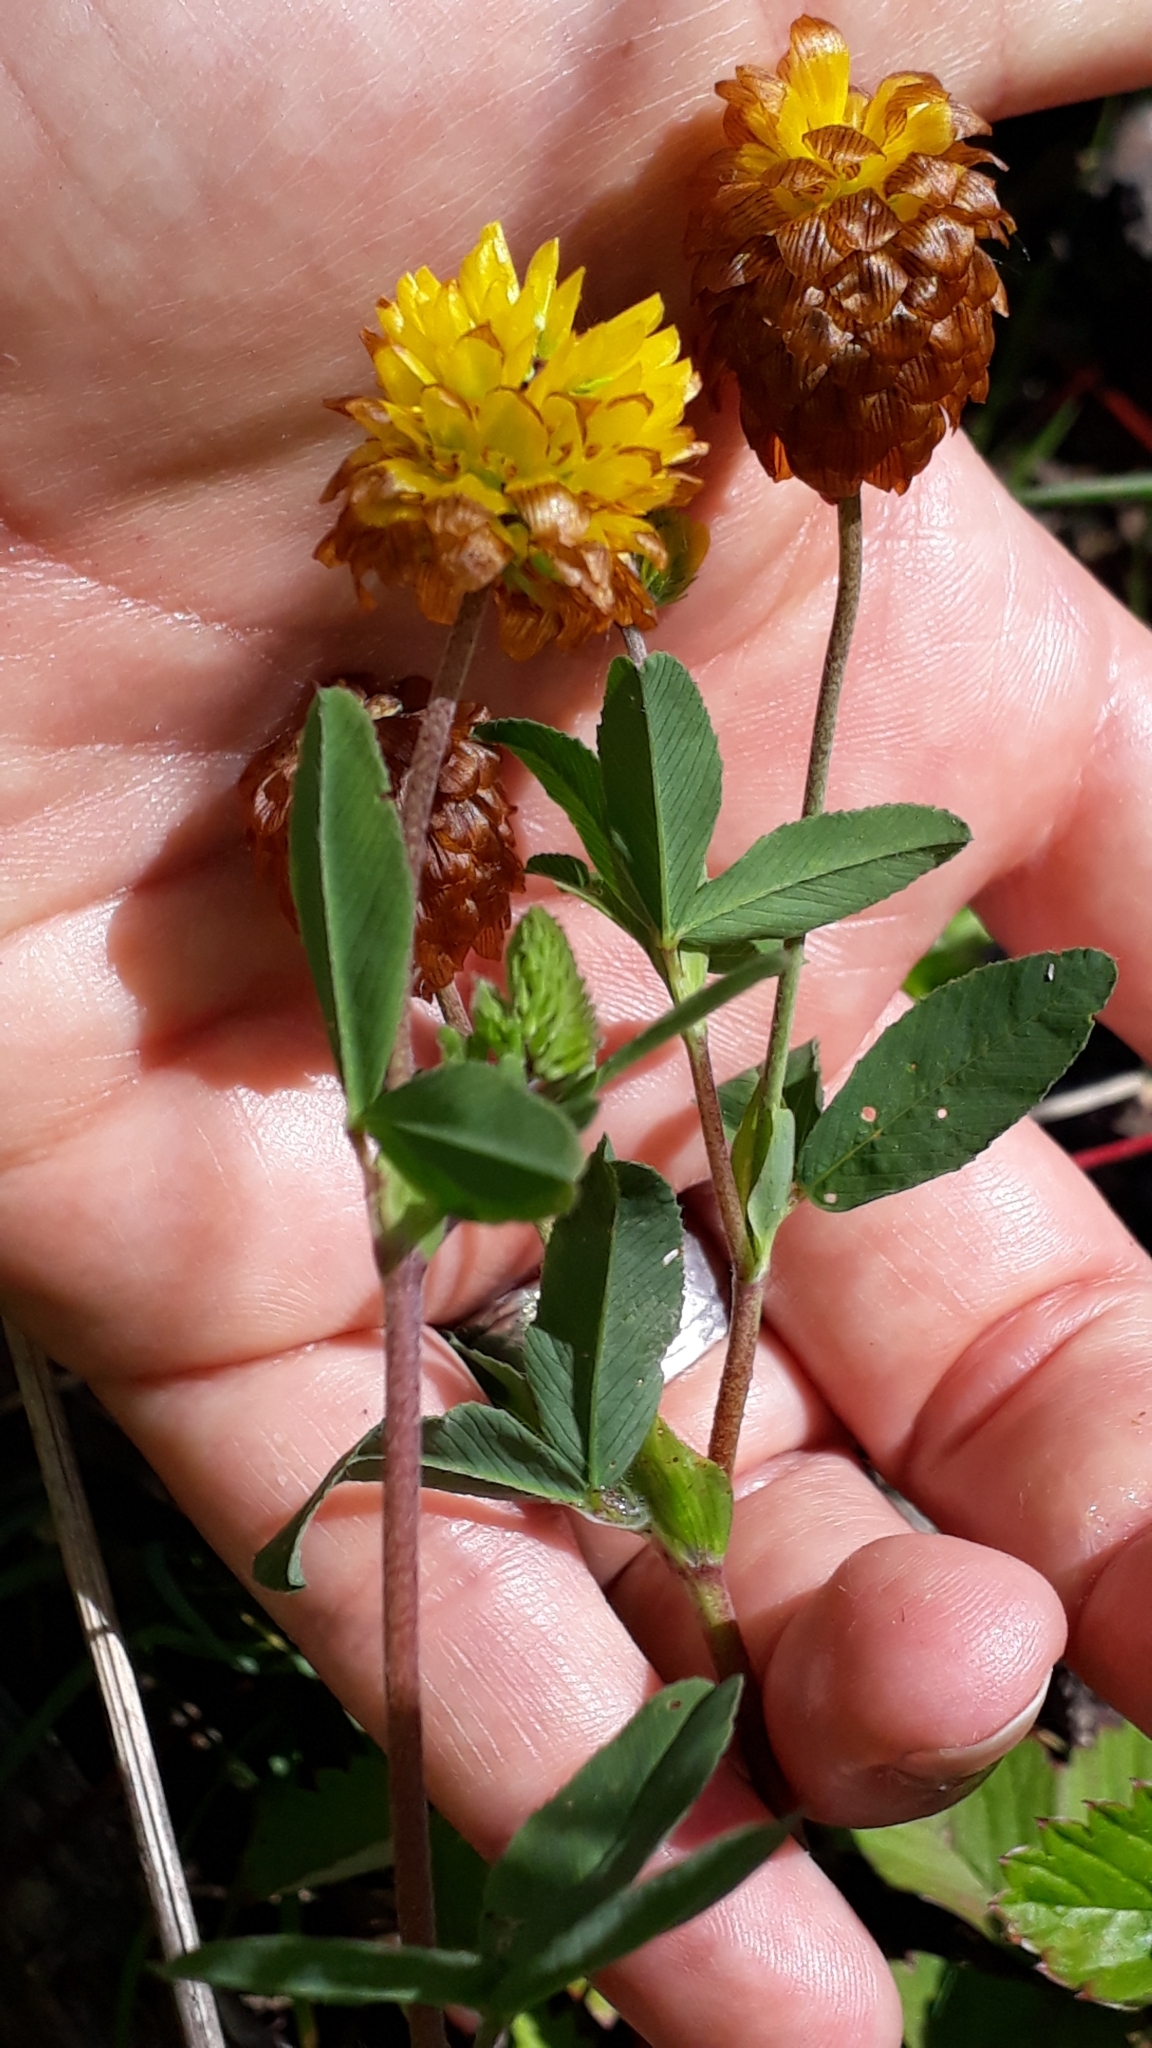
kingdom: Plantae
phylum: Tracheophyta
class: Magnoliopsida
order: Fabales
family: Fabaceae
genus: Trifolium
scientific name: Trifolium badium
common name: Brown clover
